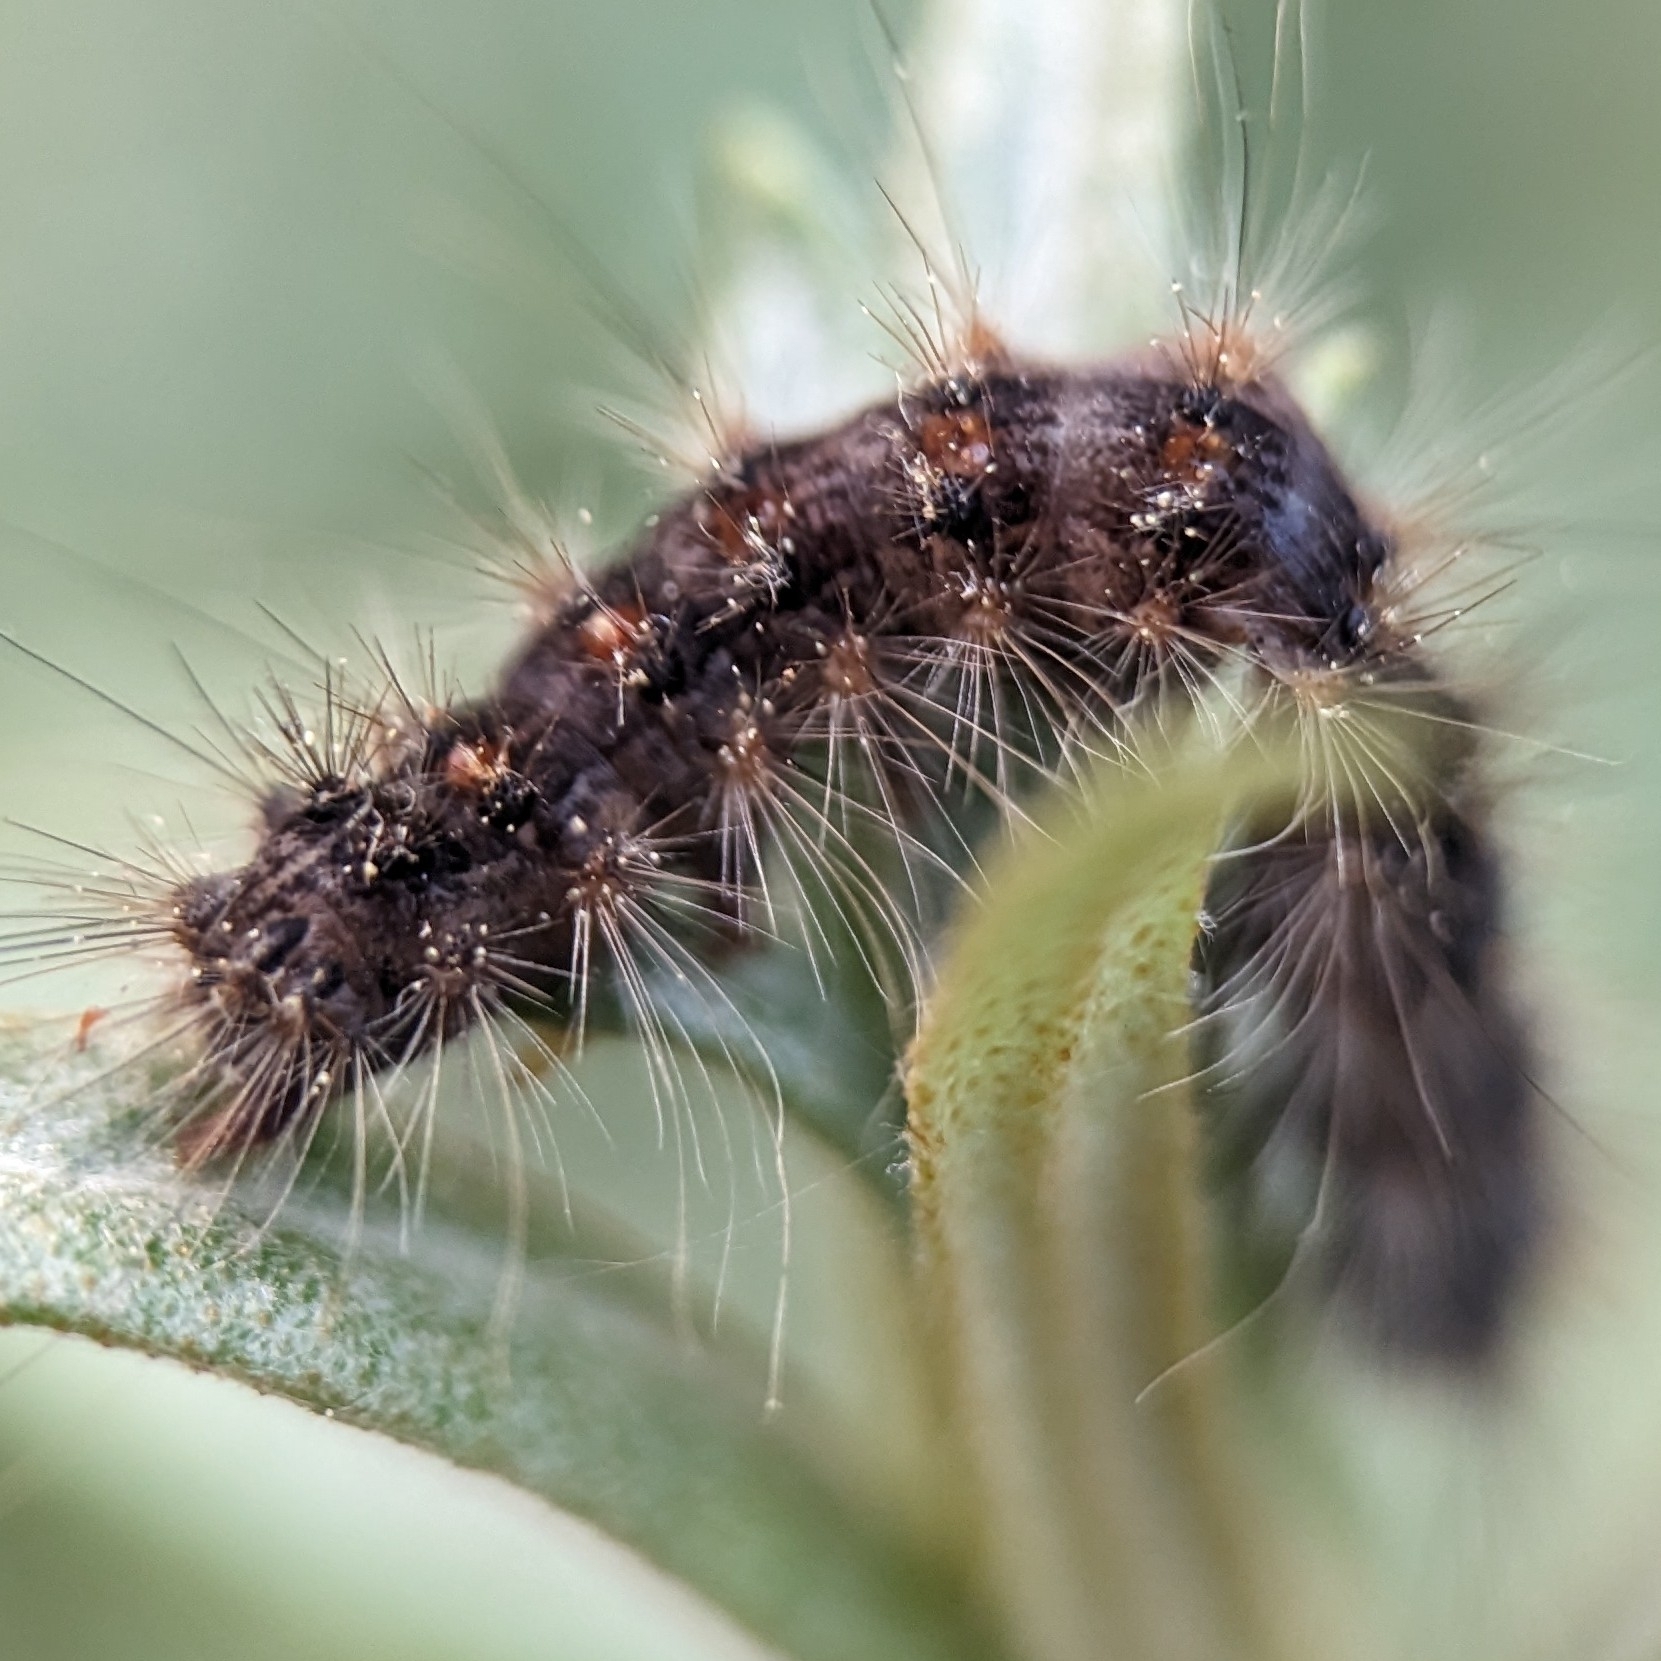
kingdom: Animalia
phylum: Arthropoda
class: Insecta
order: Lepidoptera
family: Erebidae
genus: Lymantria
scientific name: Lymantria dispar
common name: Gypsy moth
